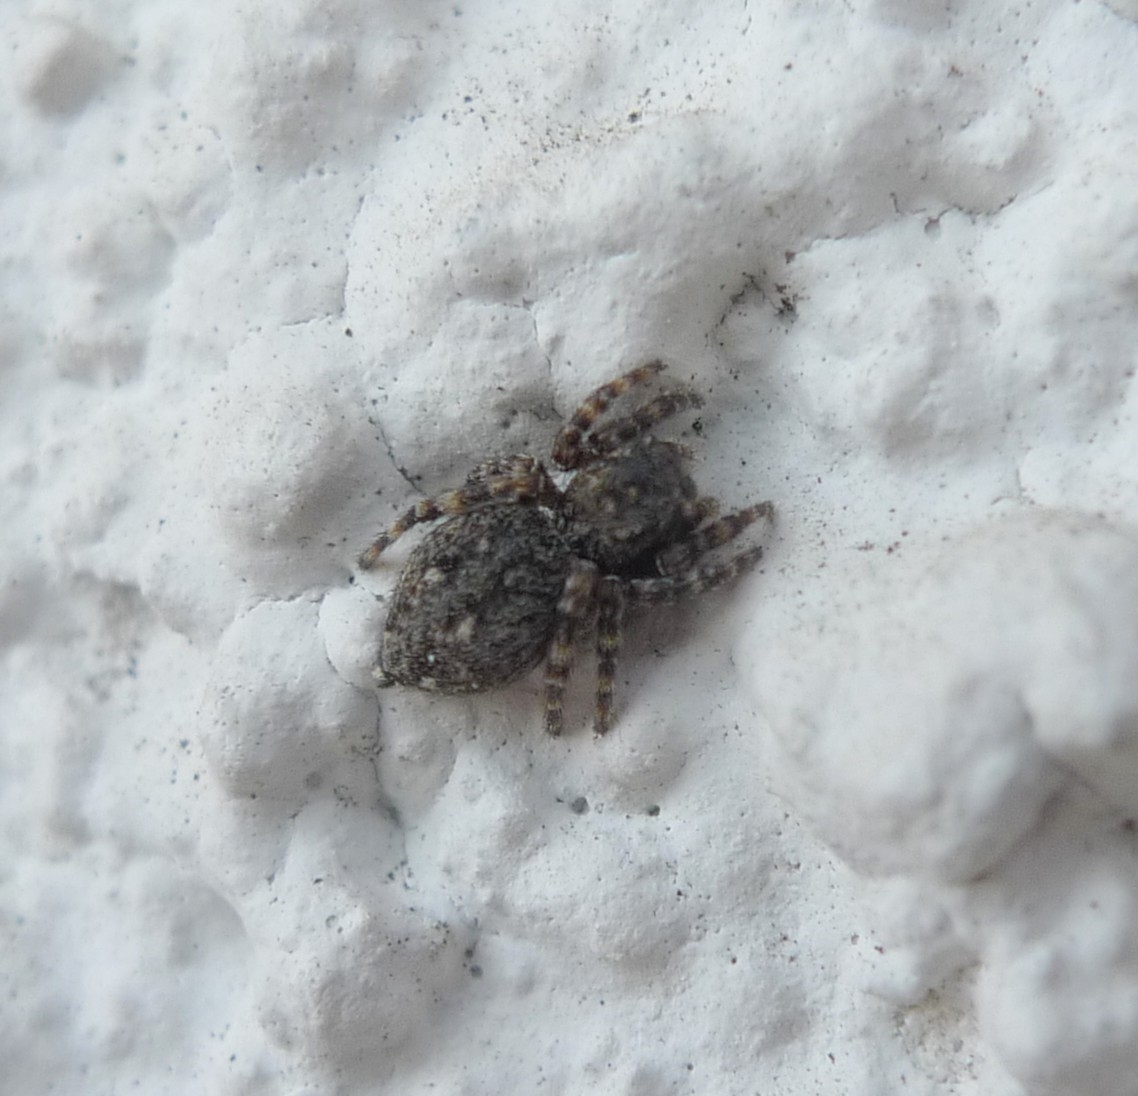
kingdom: Animalia
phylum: Arthropoda
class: Arachnida
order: Araneae
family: Salticidae
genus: Attulus
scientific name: Attulus pubescens
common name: Jumping spider
